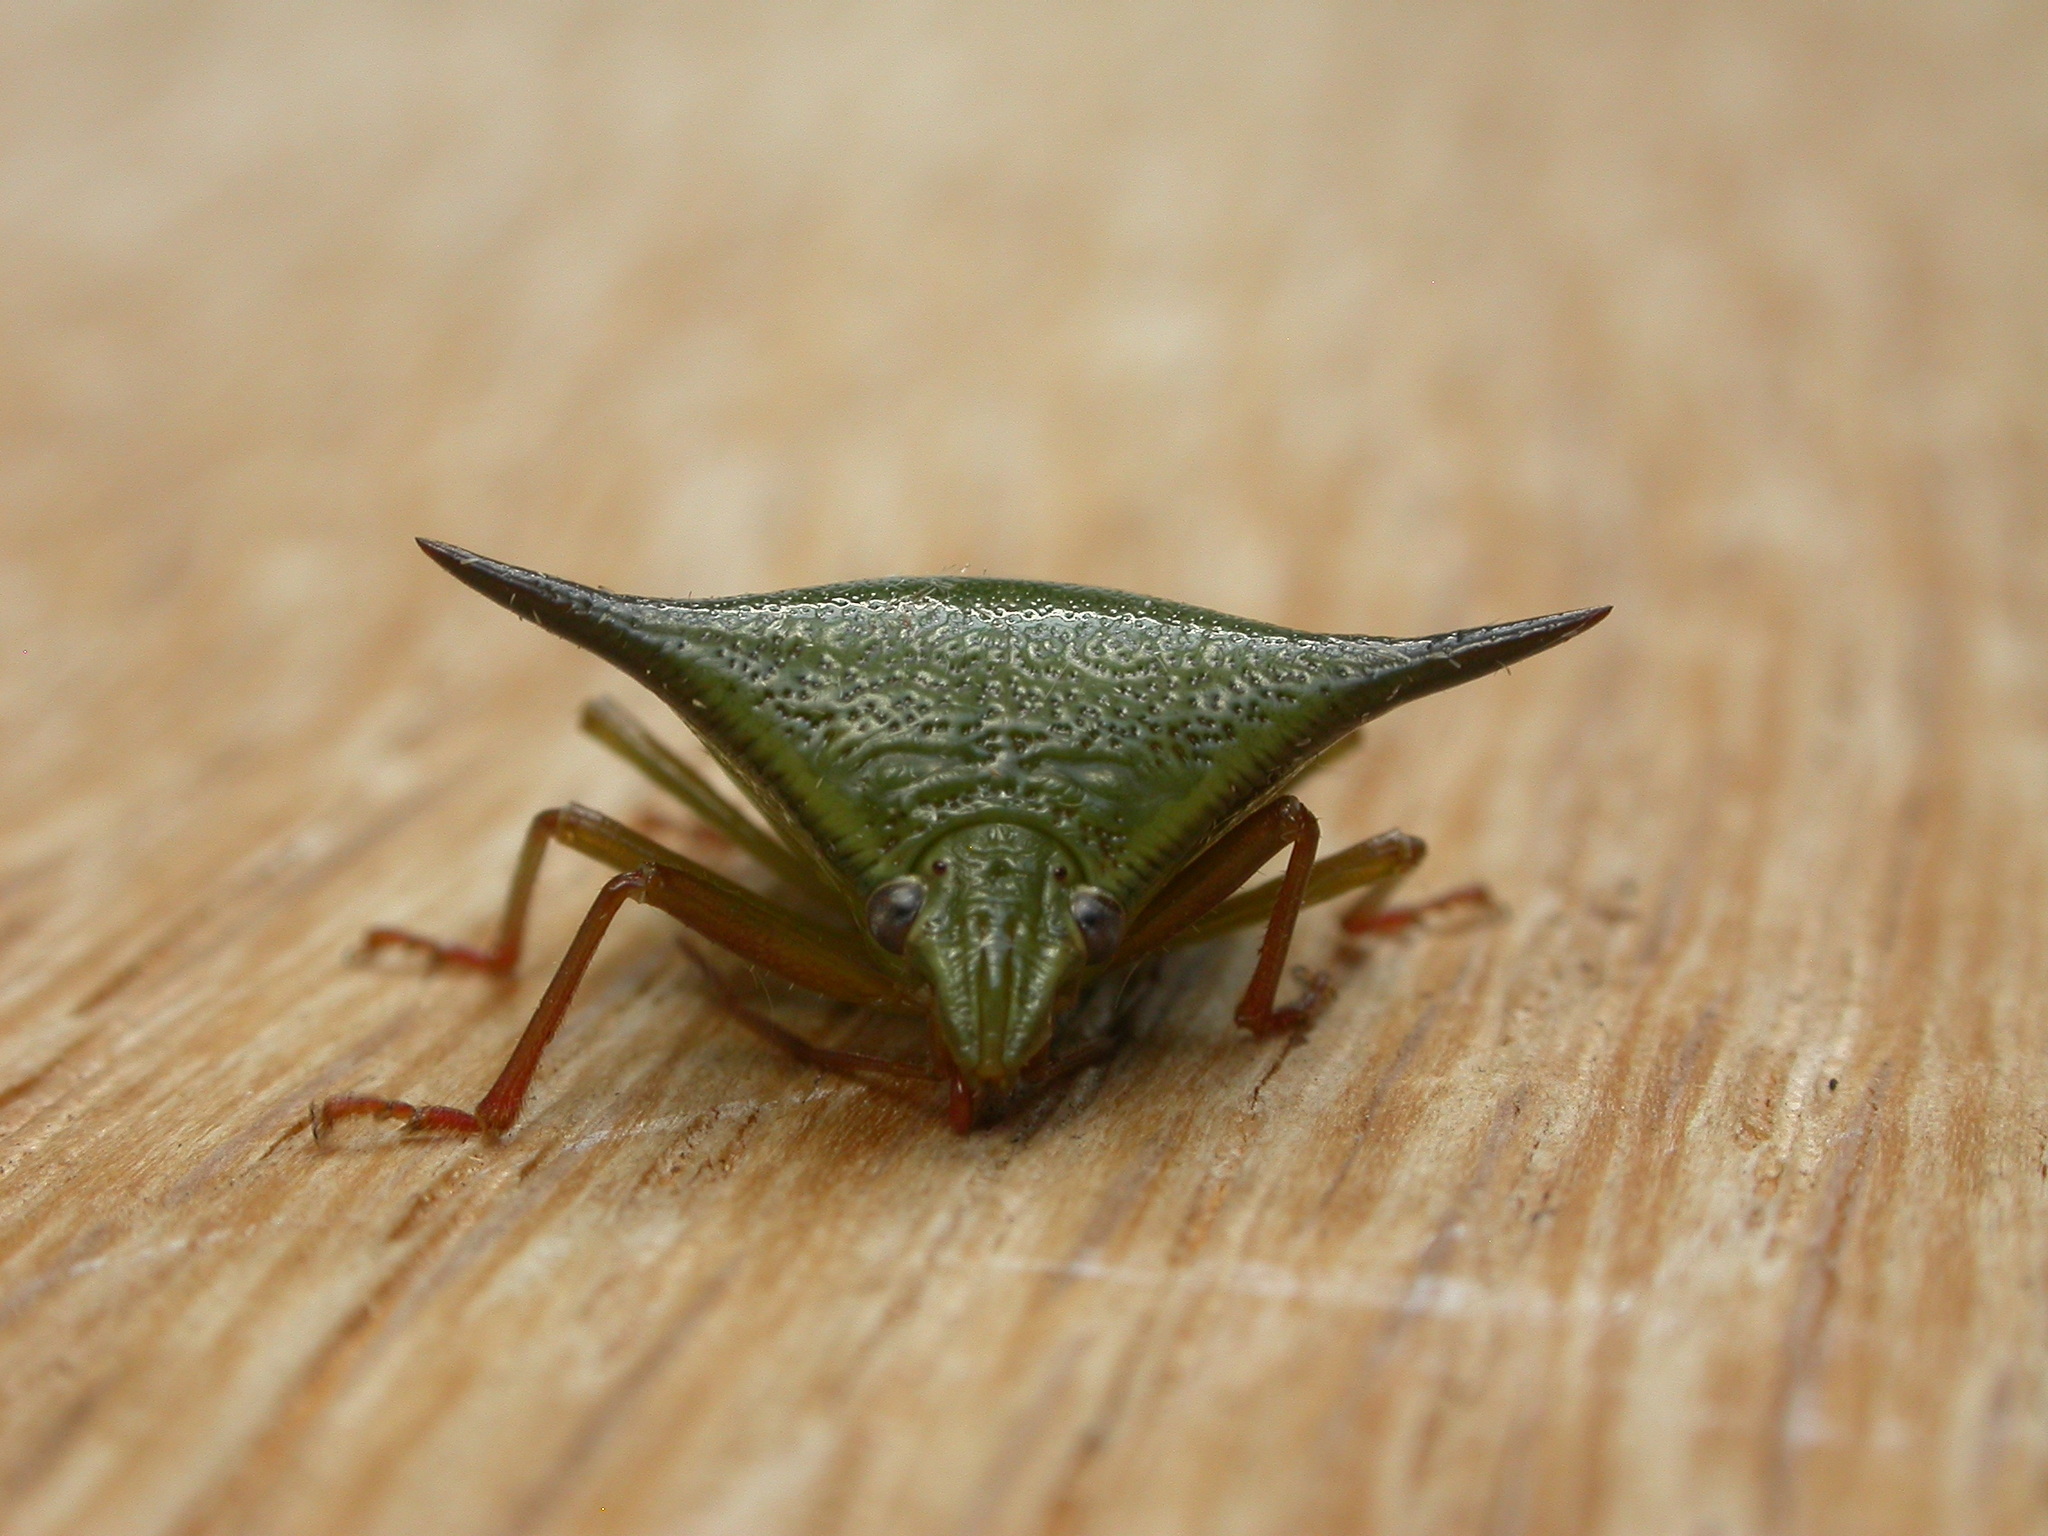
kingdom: Animalia
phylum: Arthropoda
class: Insecta
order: Hemiptera
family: Pentatomidae
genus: Vitellus
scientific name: Vitellus
